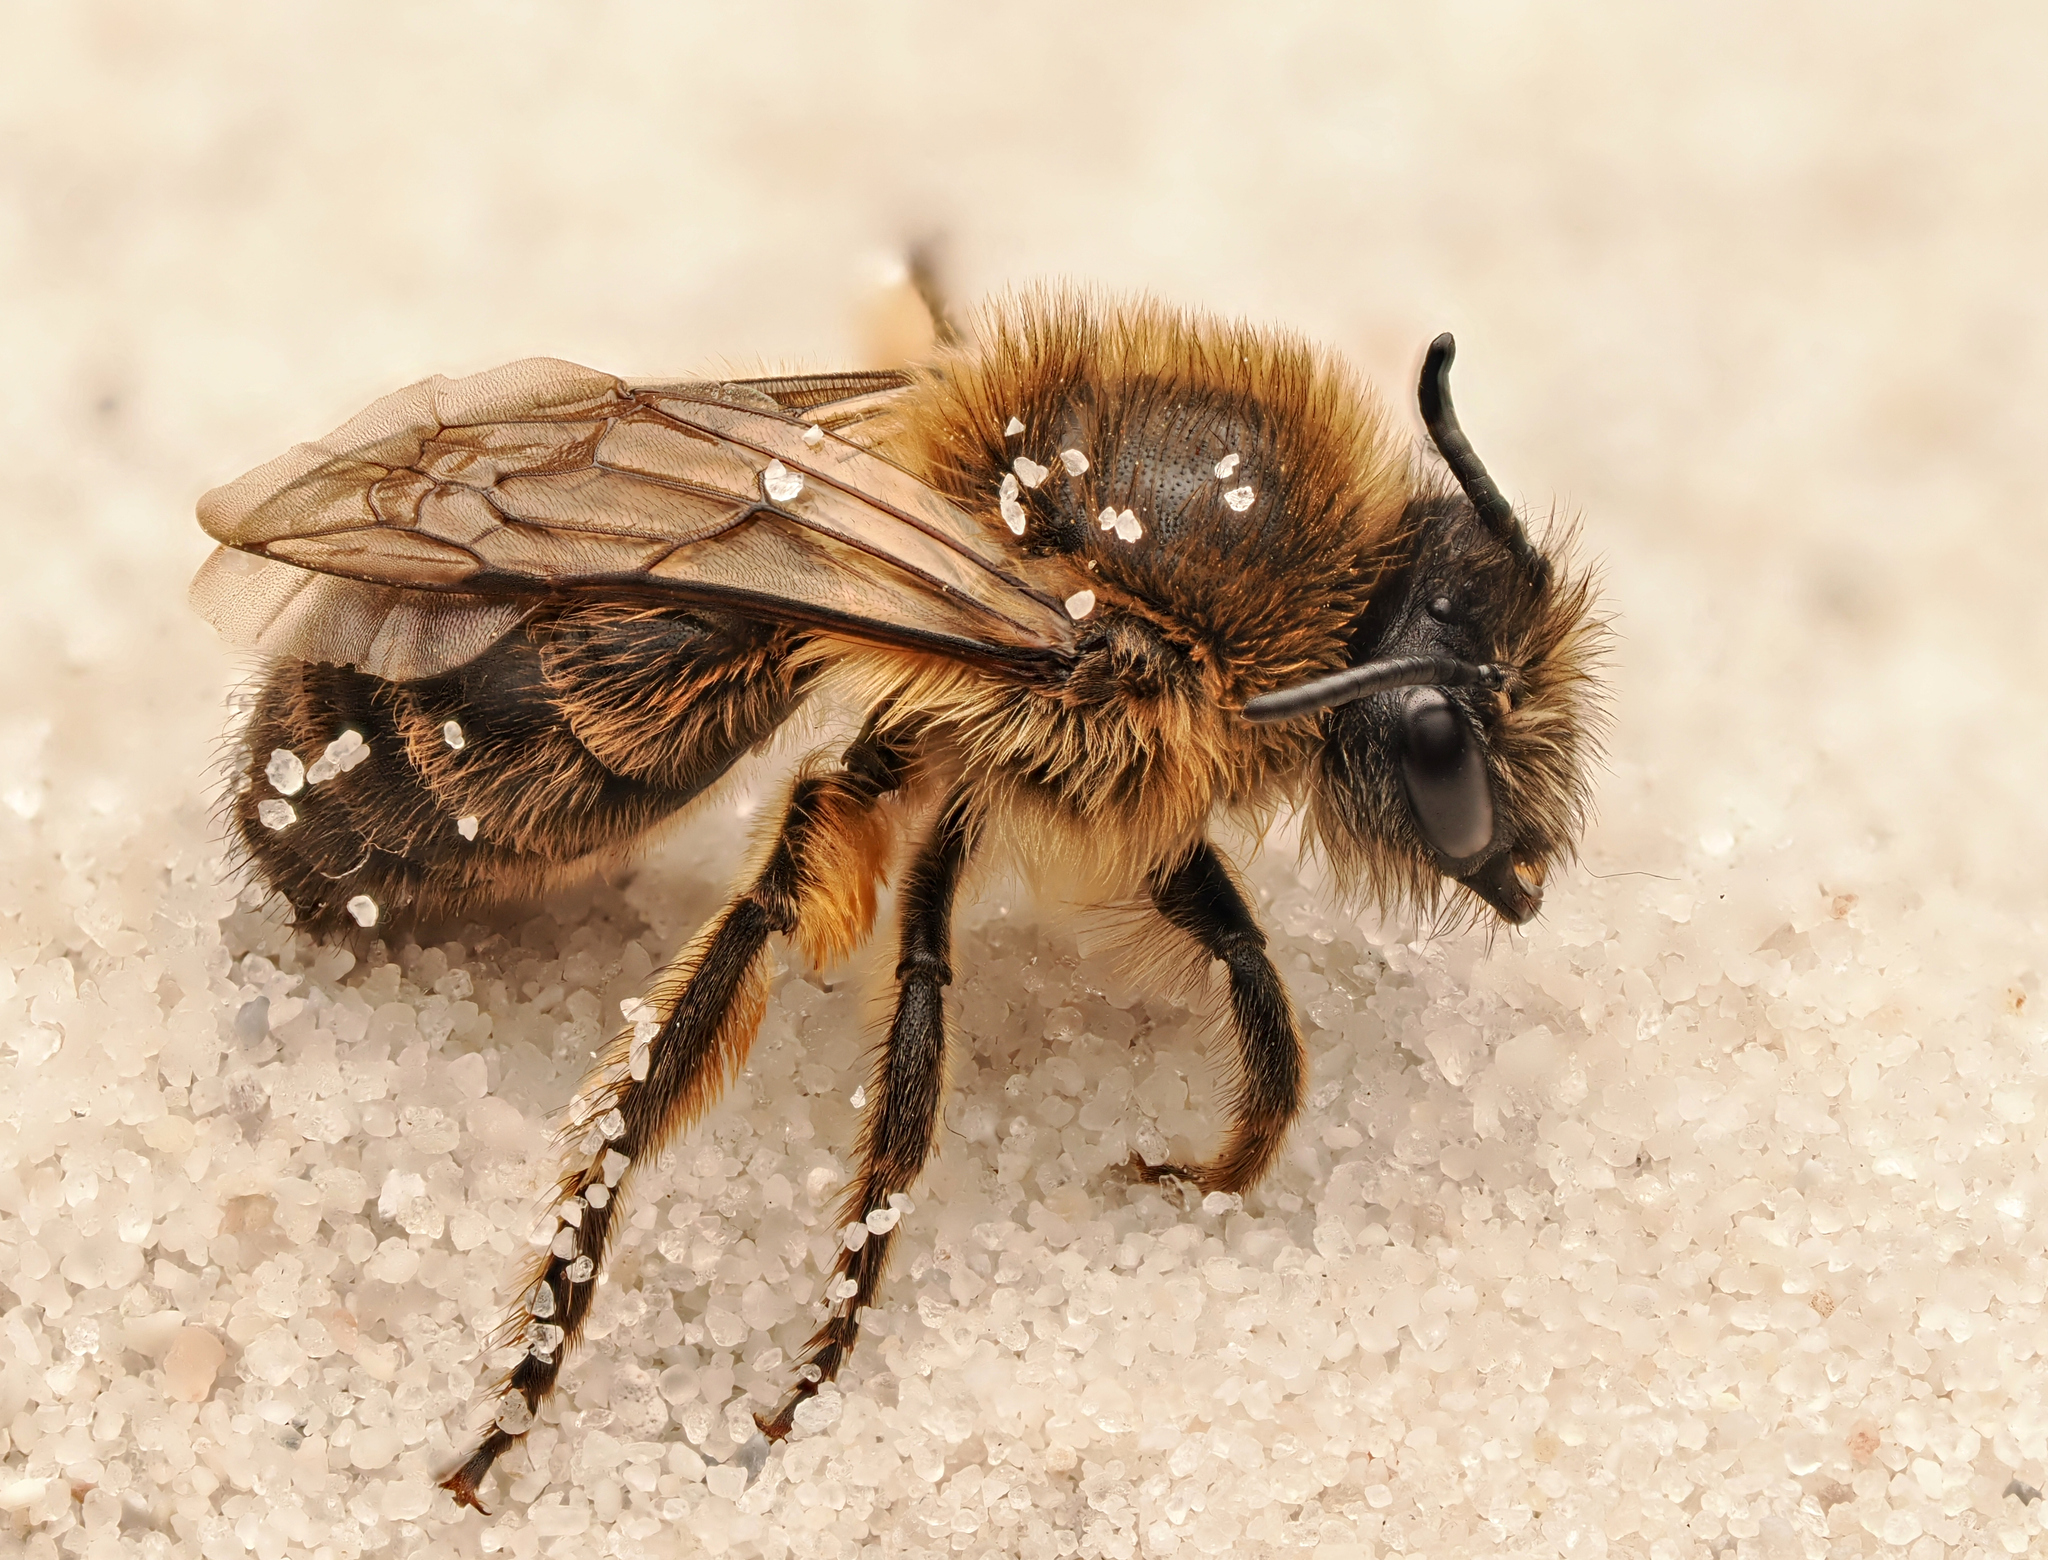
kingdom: Animalia
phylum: Arthropoda
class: Insecta
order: Hymenoptera
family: Colletidae
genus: Colletes
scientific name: Colletes cunicularius
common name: Early colletes
